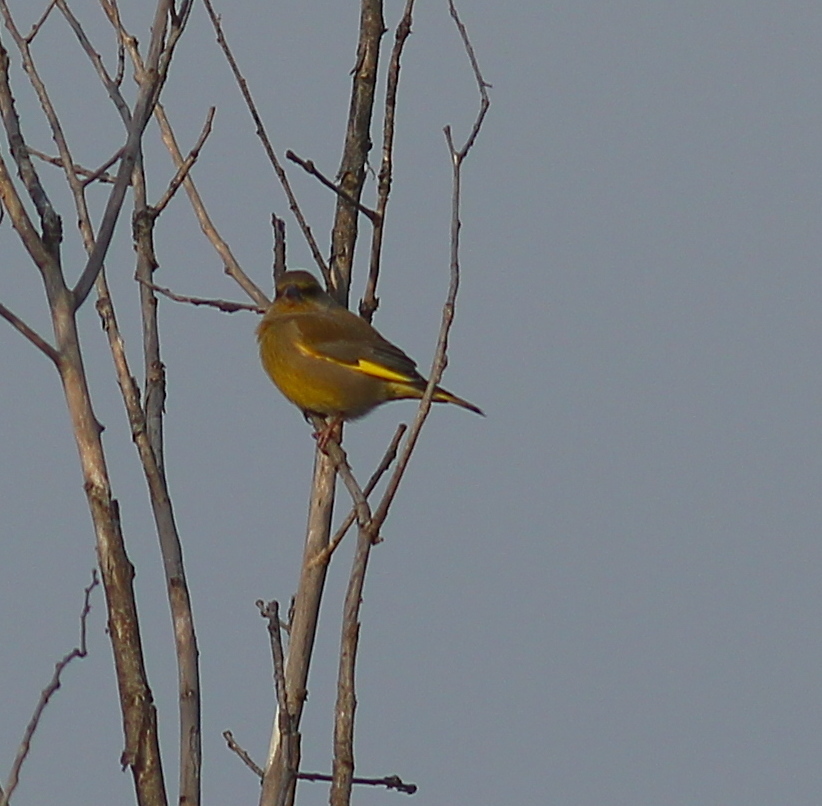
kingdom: Plantae
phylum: Tracheophyta
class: Liliopsida
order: Poales
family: Poaceae
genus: Chloris
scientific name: Chloris chloris
